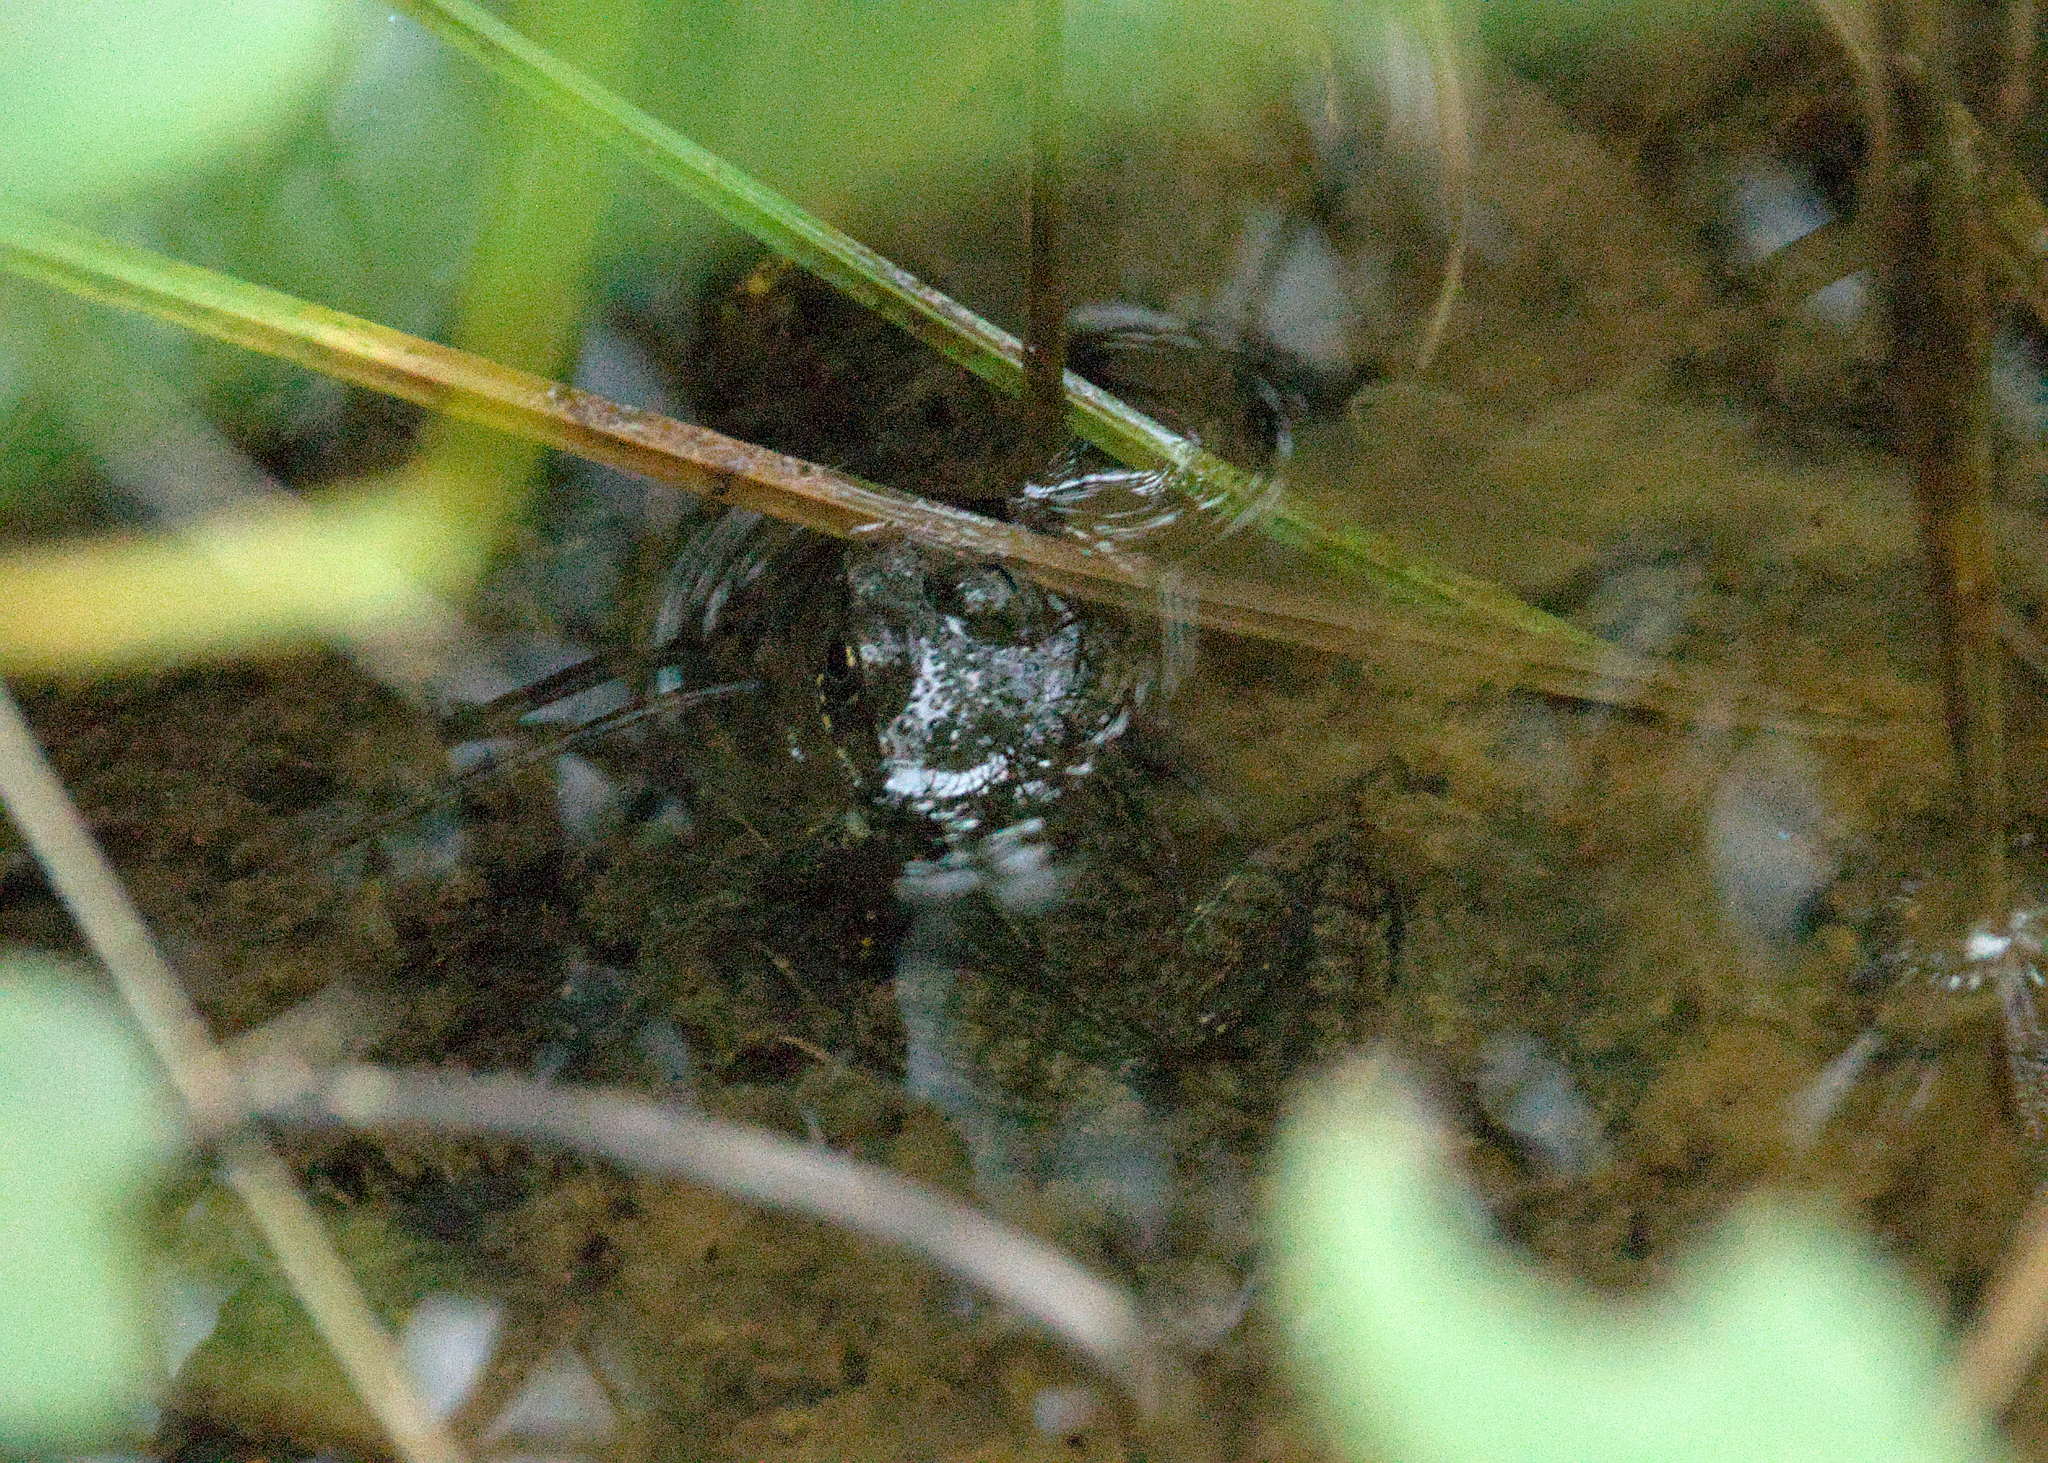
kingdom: Animalia
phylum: Chordata
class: Amphibia
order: Anura
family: Ranidae
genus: Lithobates
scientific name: Lithobates clamitans
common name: Green frog
